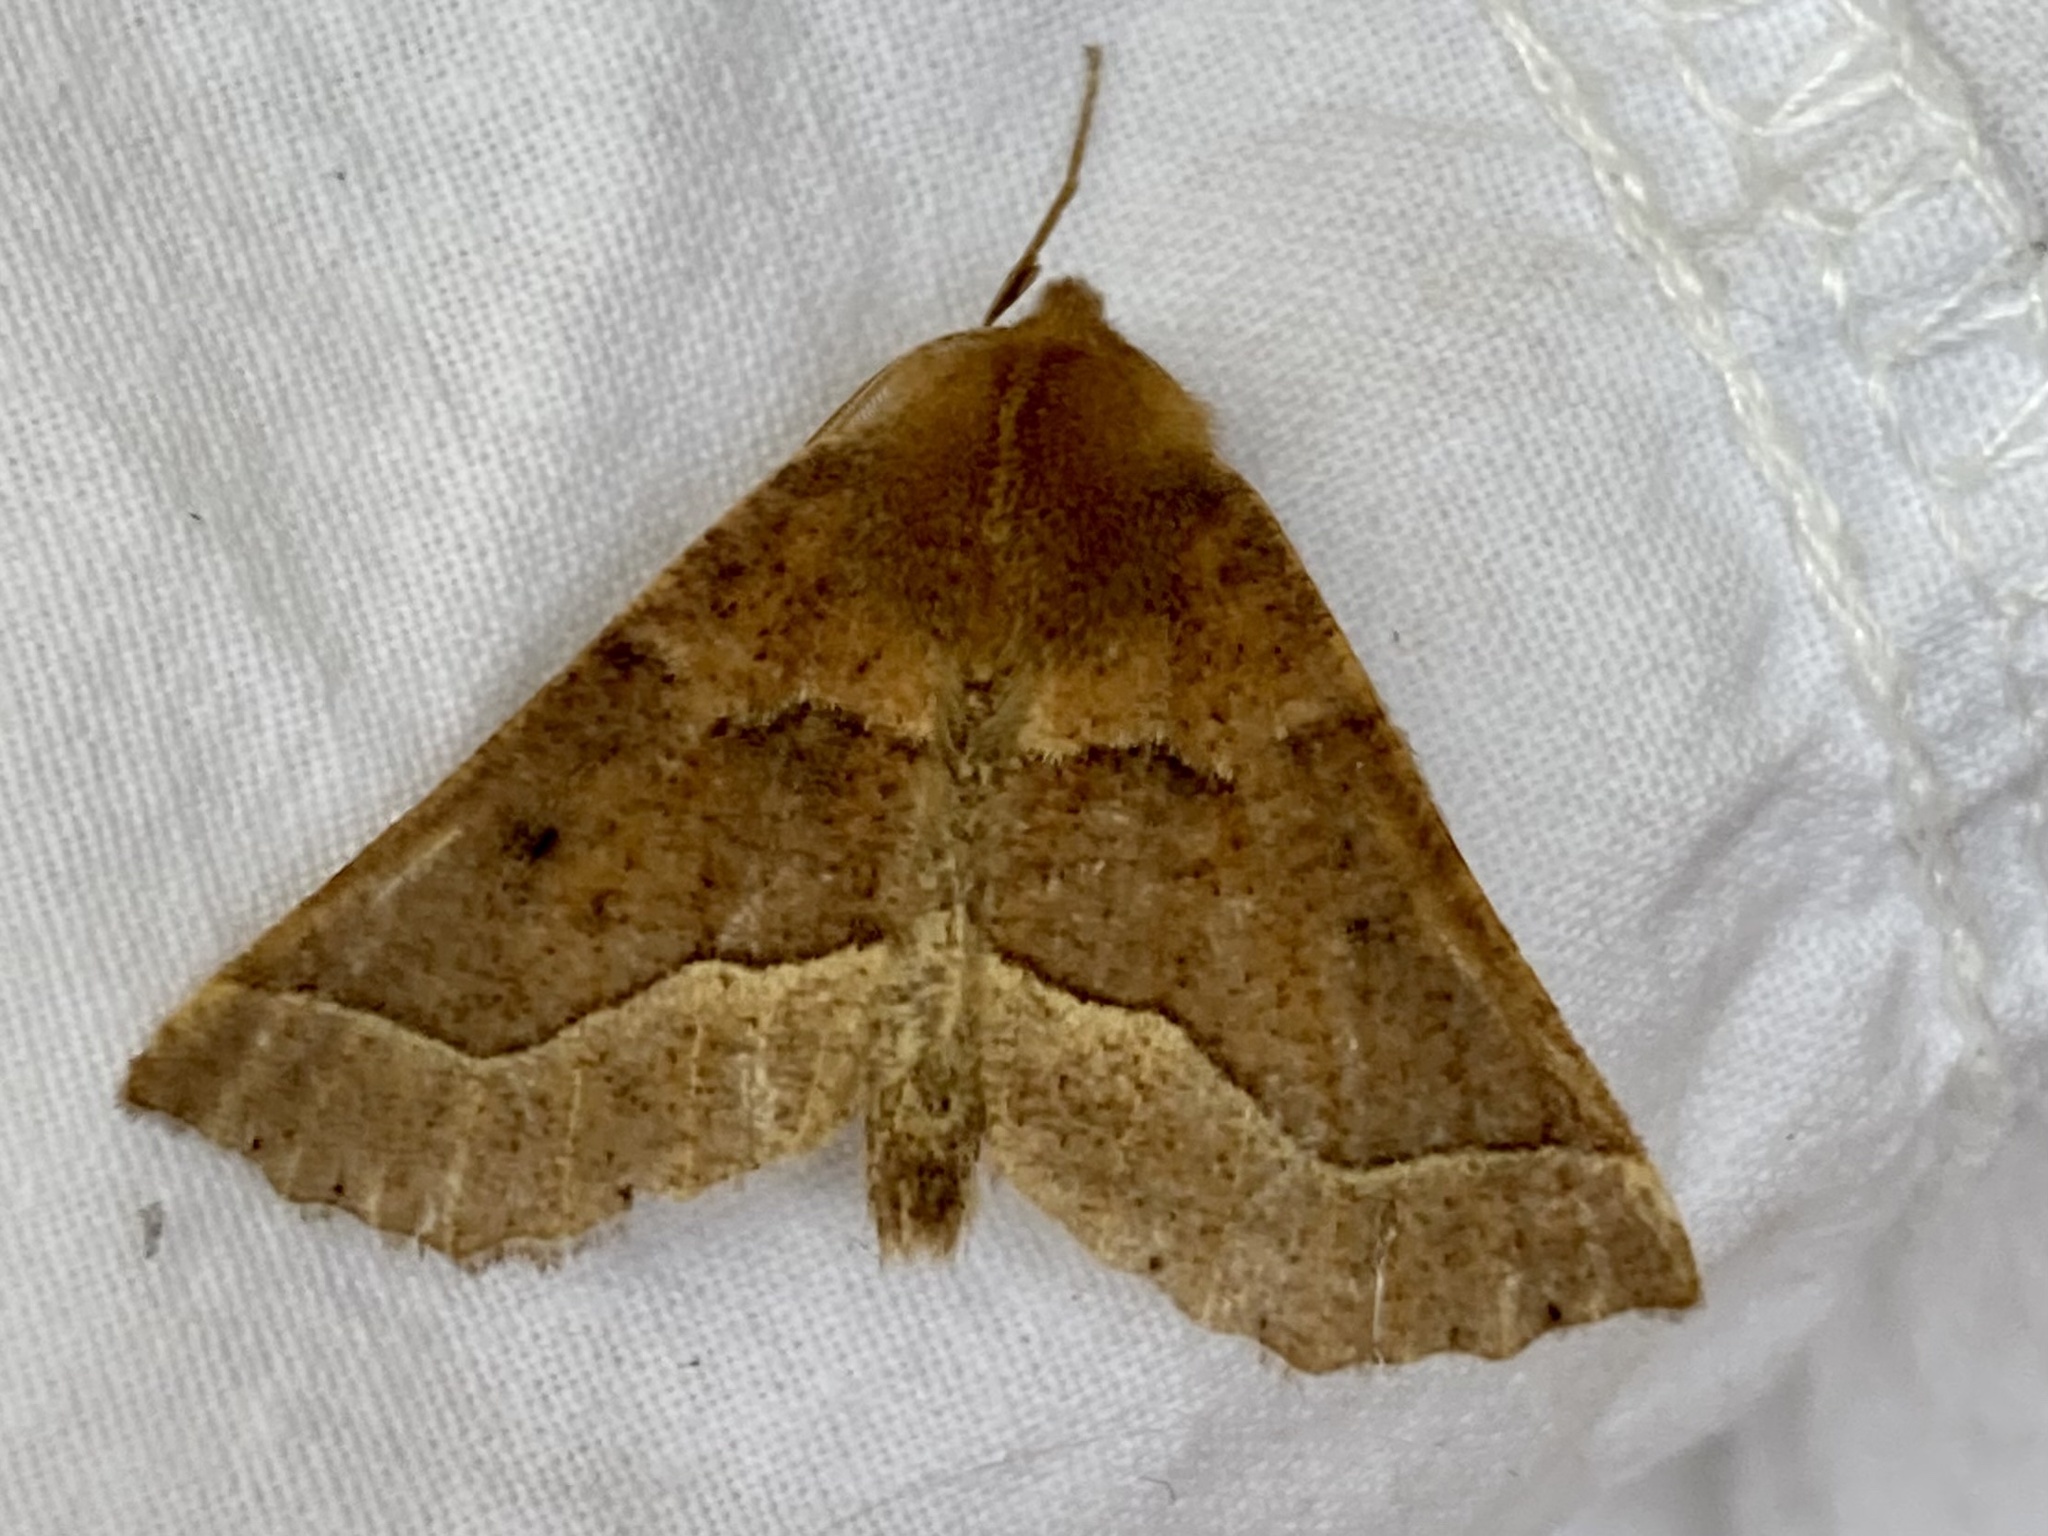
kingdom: Animalia
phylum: Arthropoda
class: Insecta
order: Lepidoptera
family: Geometridae
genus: Crocallis
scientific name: Crocallis tusciaria
